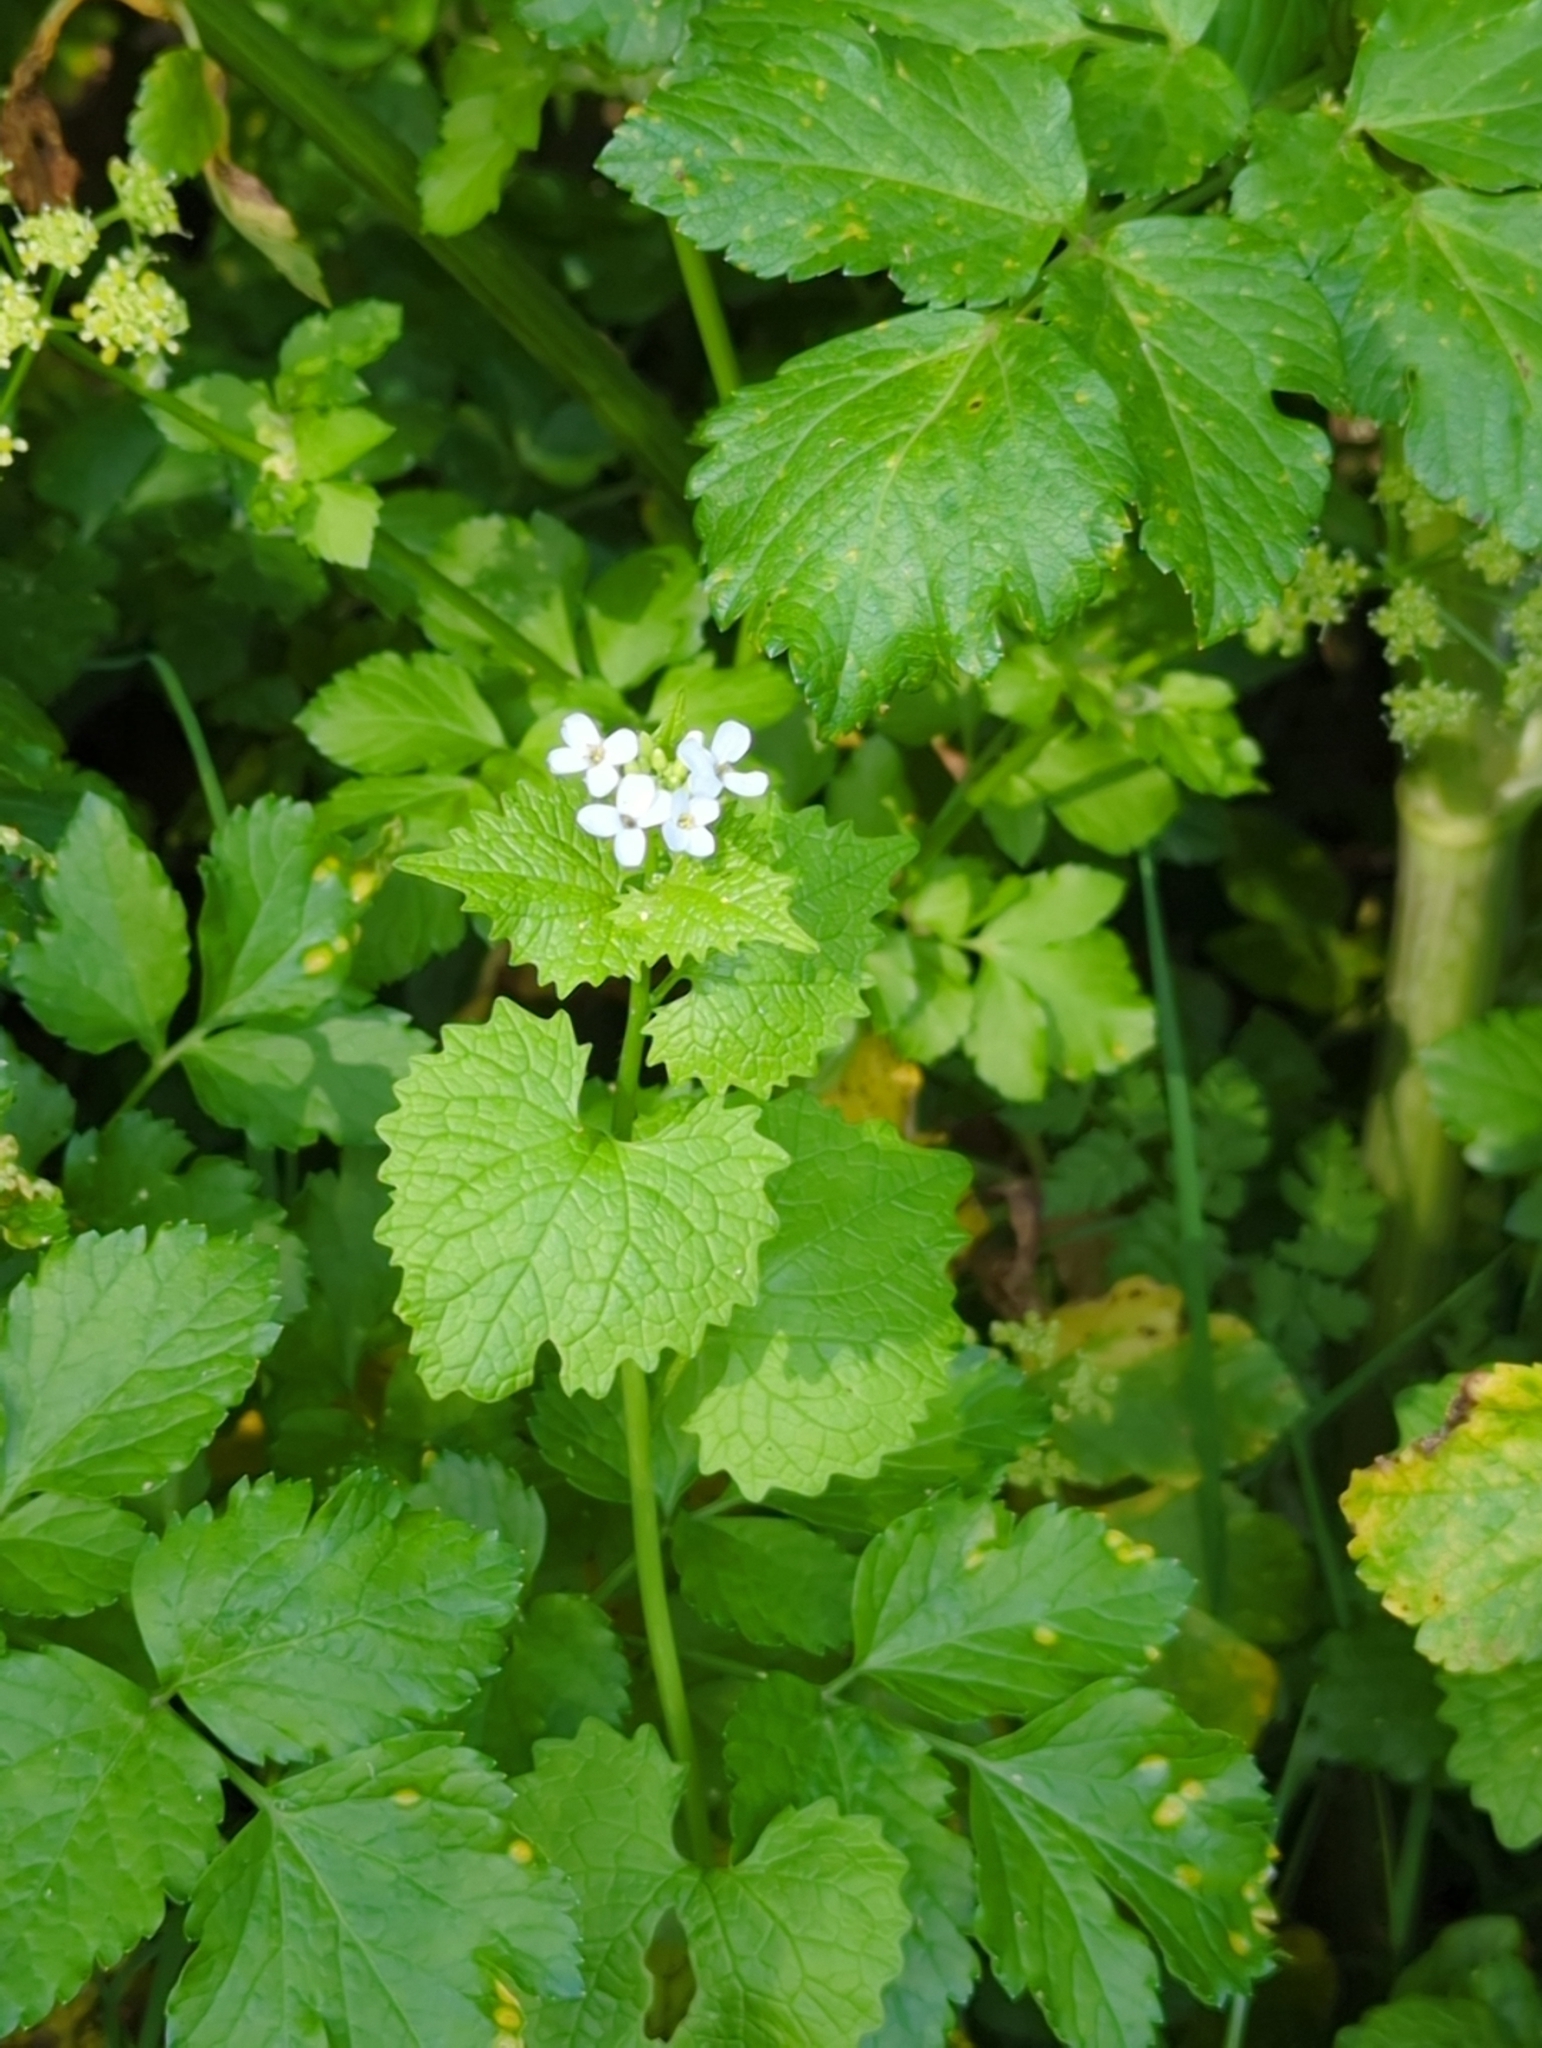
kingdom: Plantae
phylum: Tracheophyta
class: Magnoliopsida
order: Brassicales
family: Brassicaceae
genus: Alliaria
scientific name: Alliaria petiolata
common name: Garlic mustard
